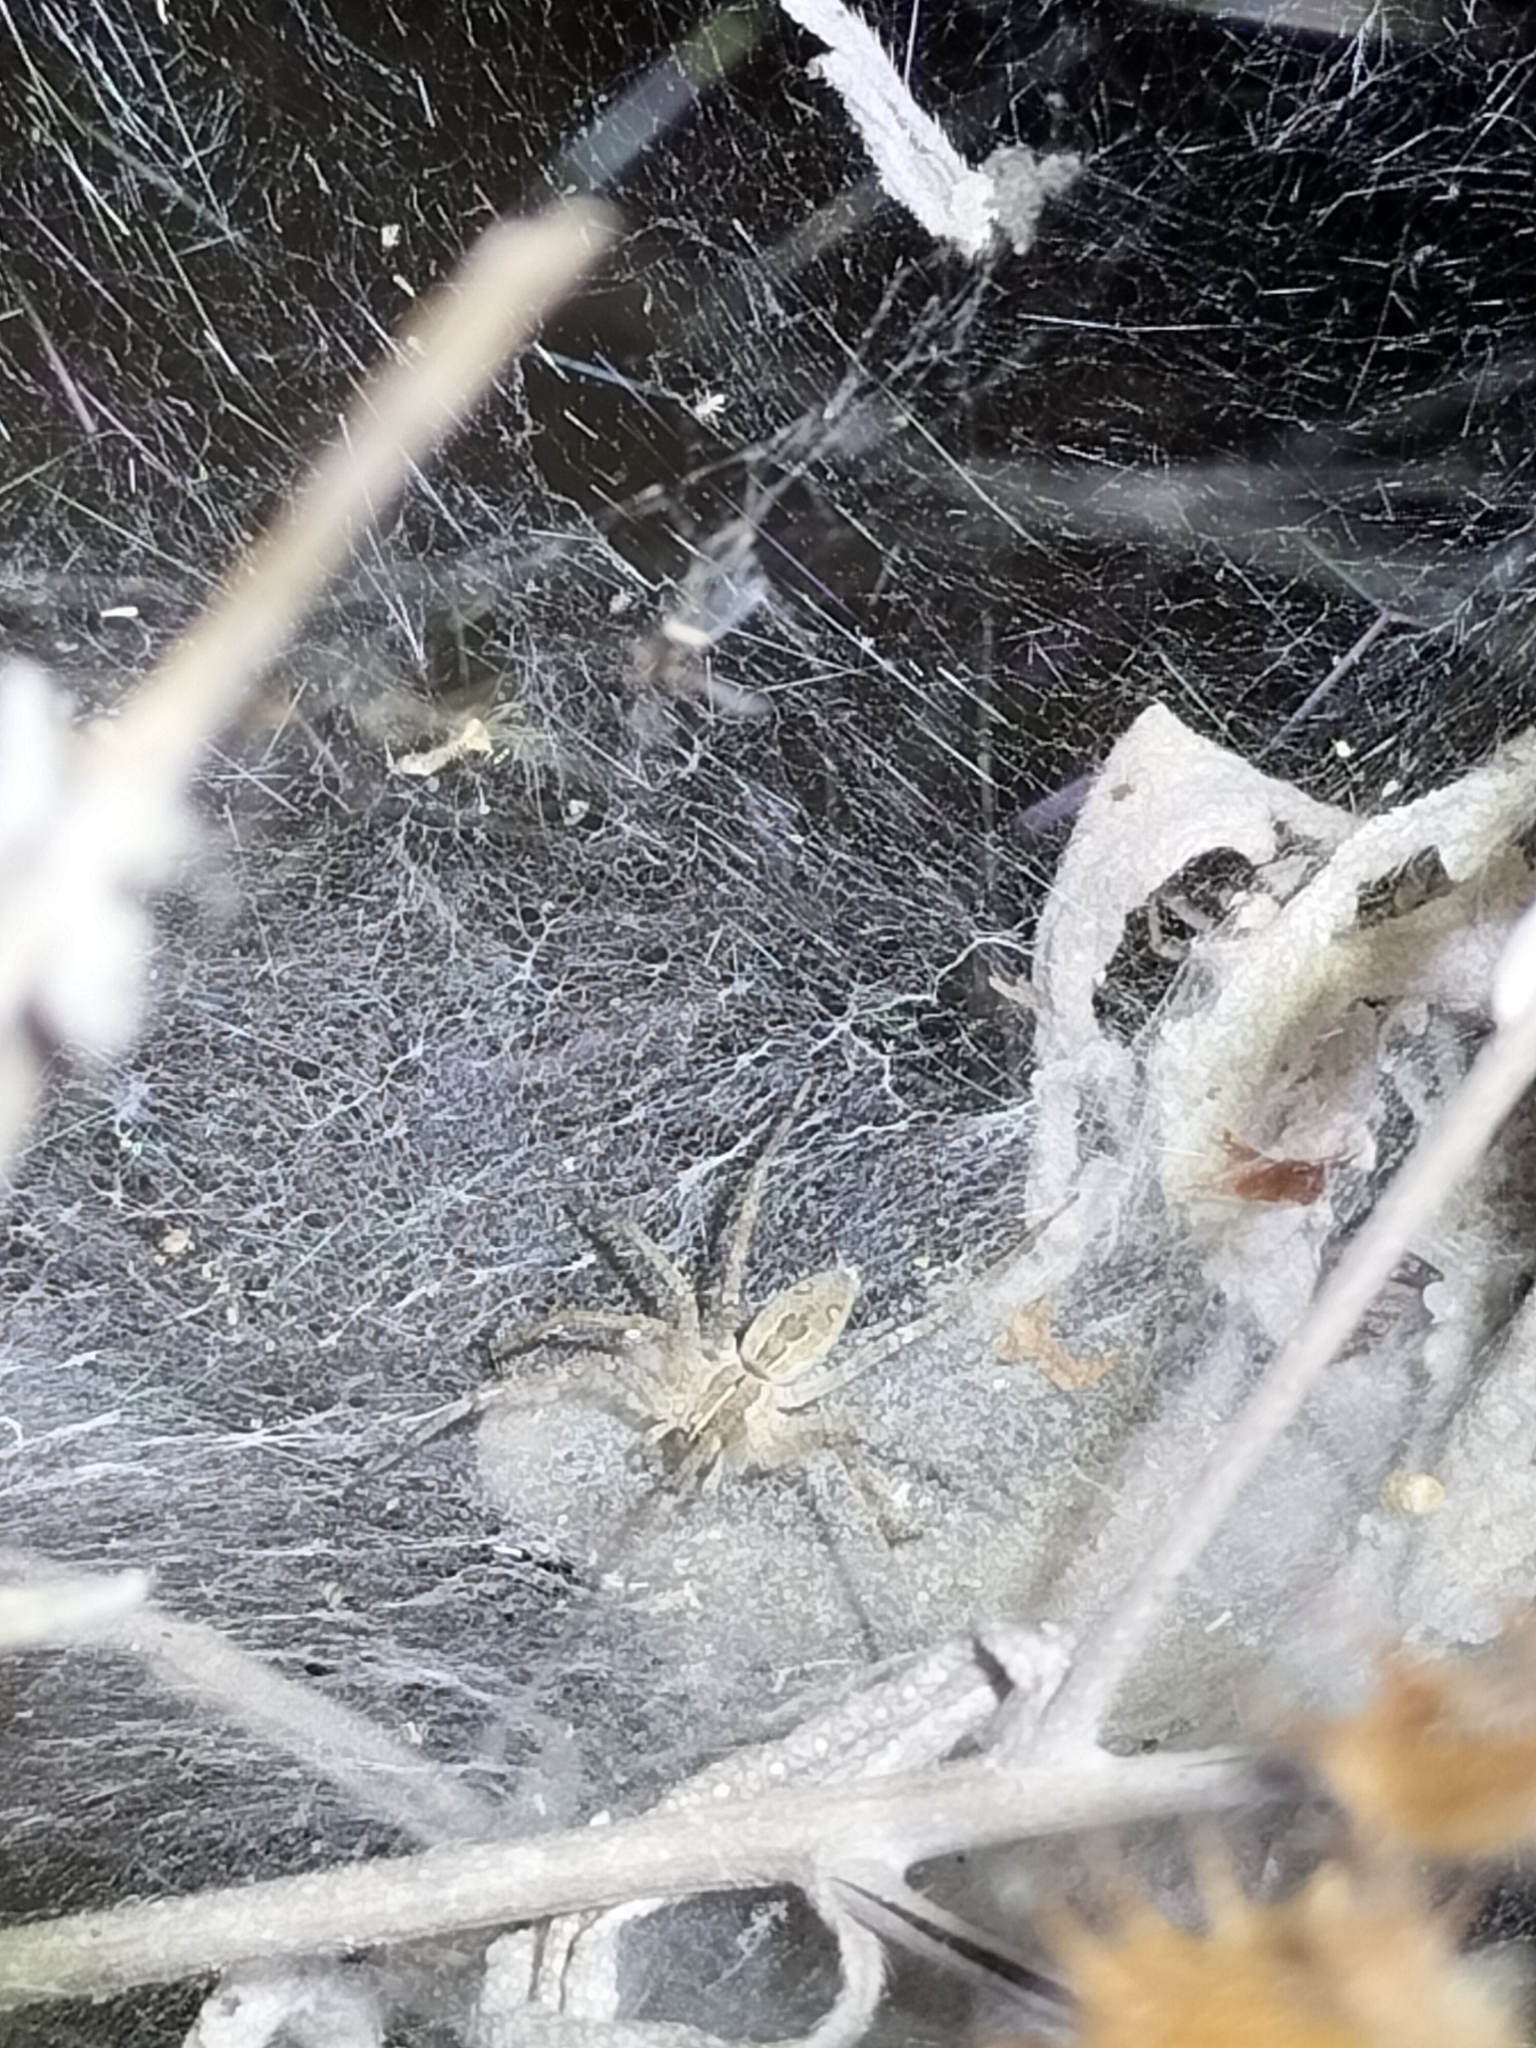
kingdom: Animalia
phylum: Arthropoda
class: Arachnida
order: Araneae
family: Pisauridae
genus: Dendrolycosa
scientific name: Dendrolycosa icadia
